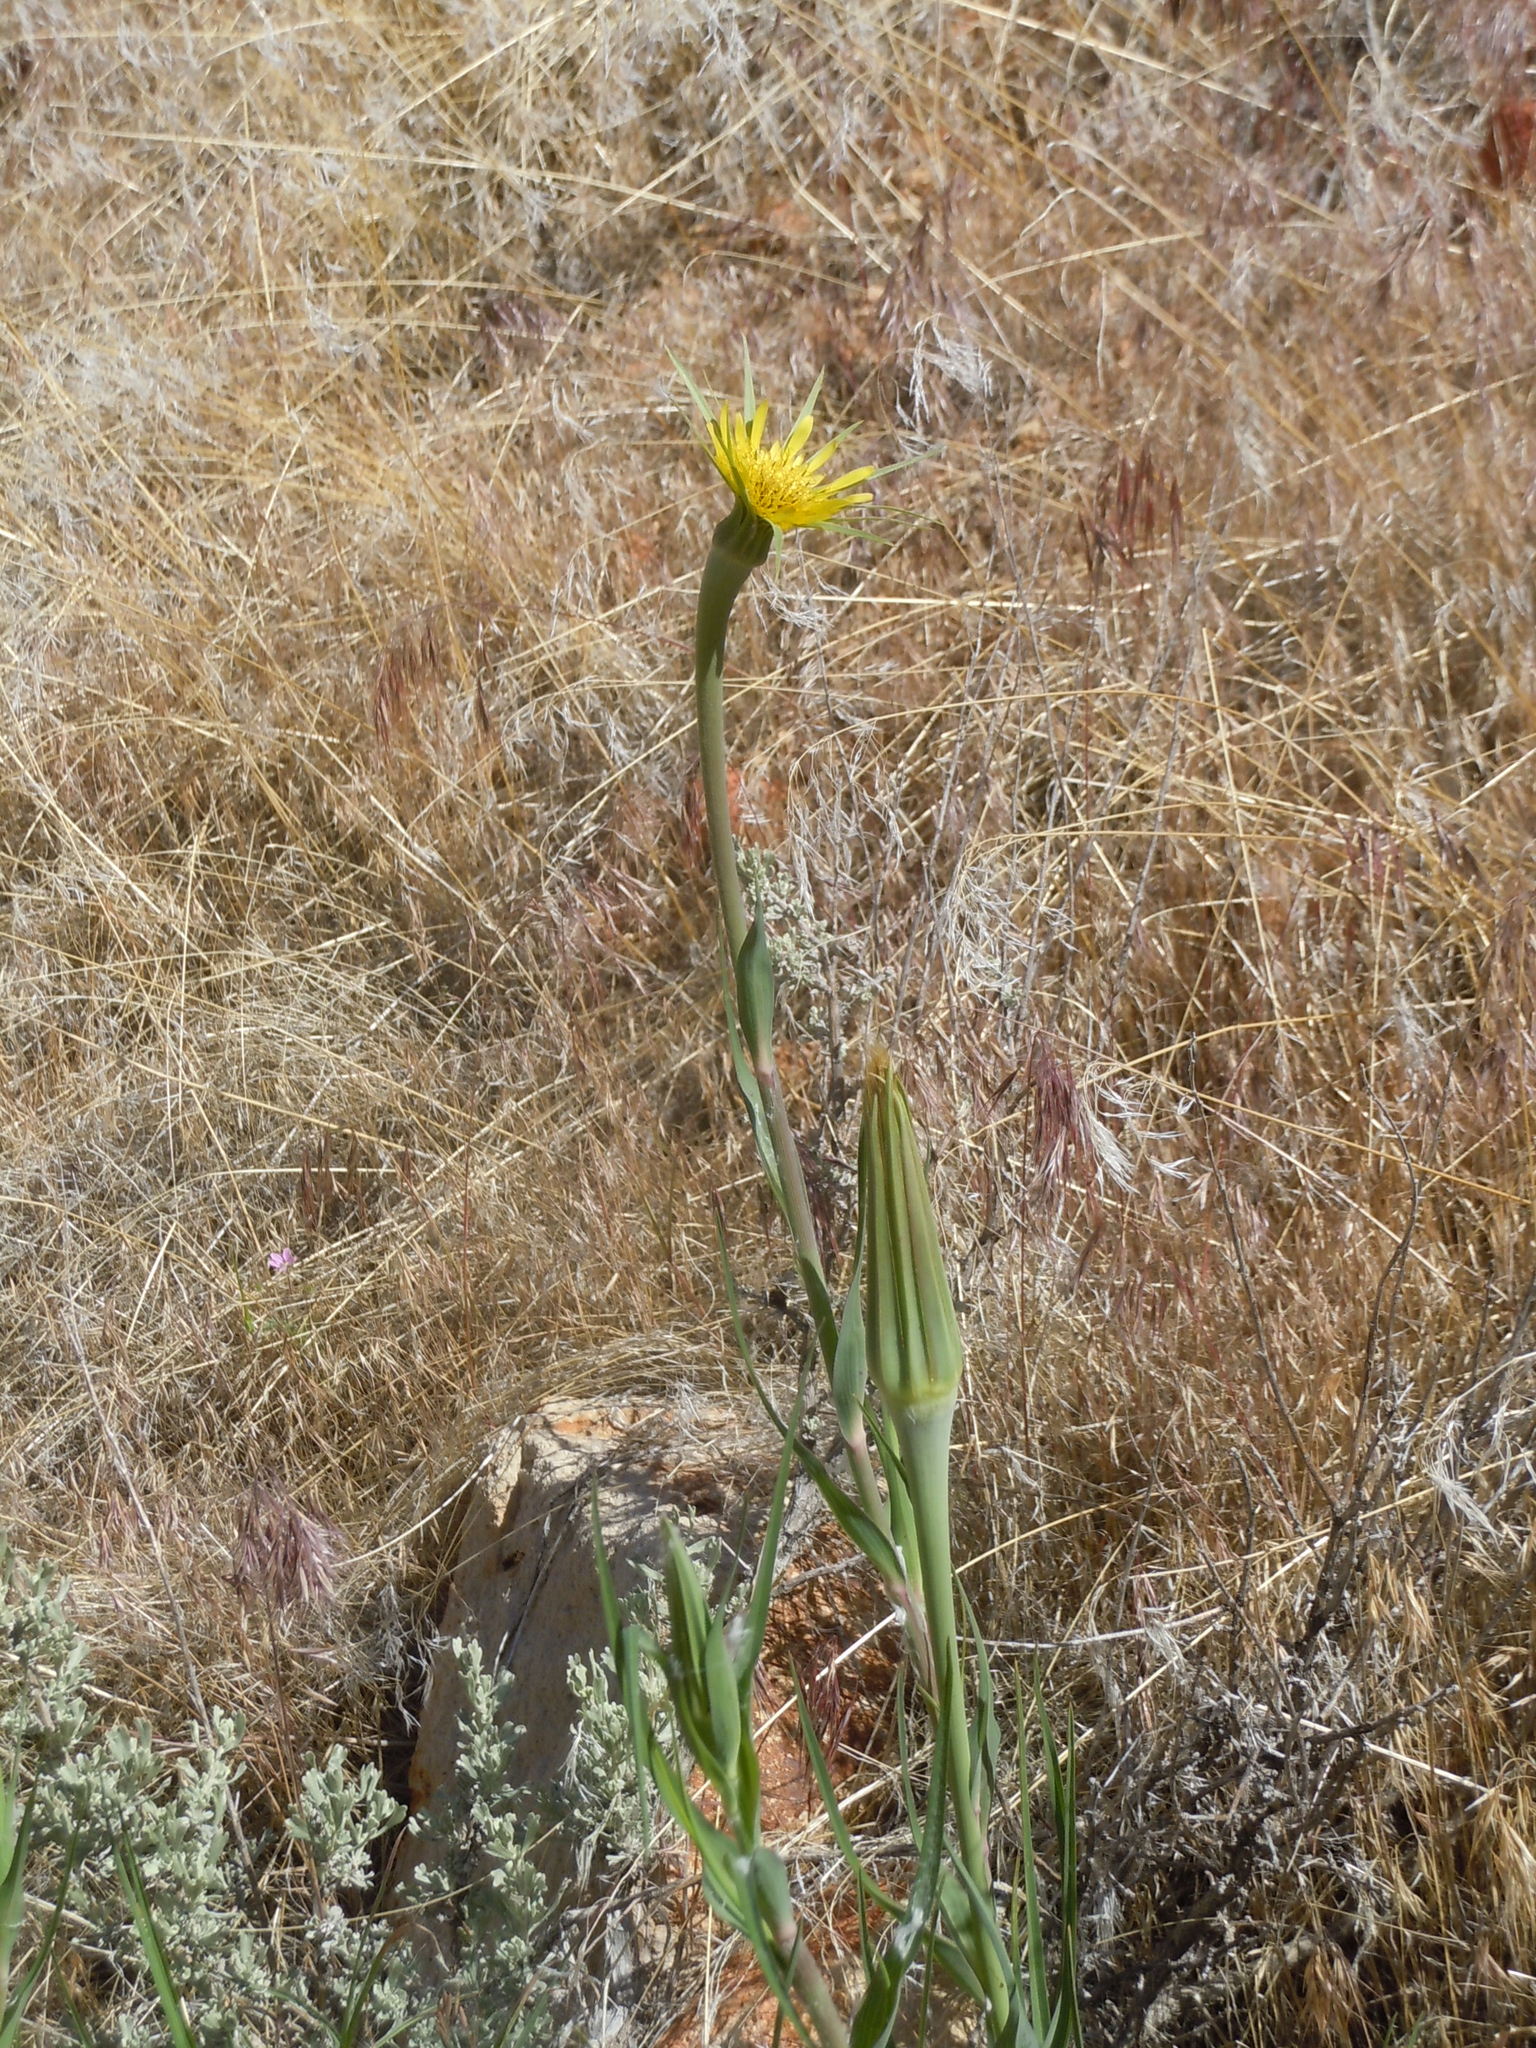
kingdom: Plantae
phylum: Tracheophyta
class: Magnoliopsida
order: Asterales
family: Asteraceae
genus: Tragopogon
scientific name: Tragopogon dubius
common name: Yellow salsify
